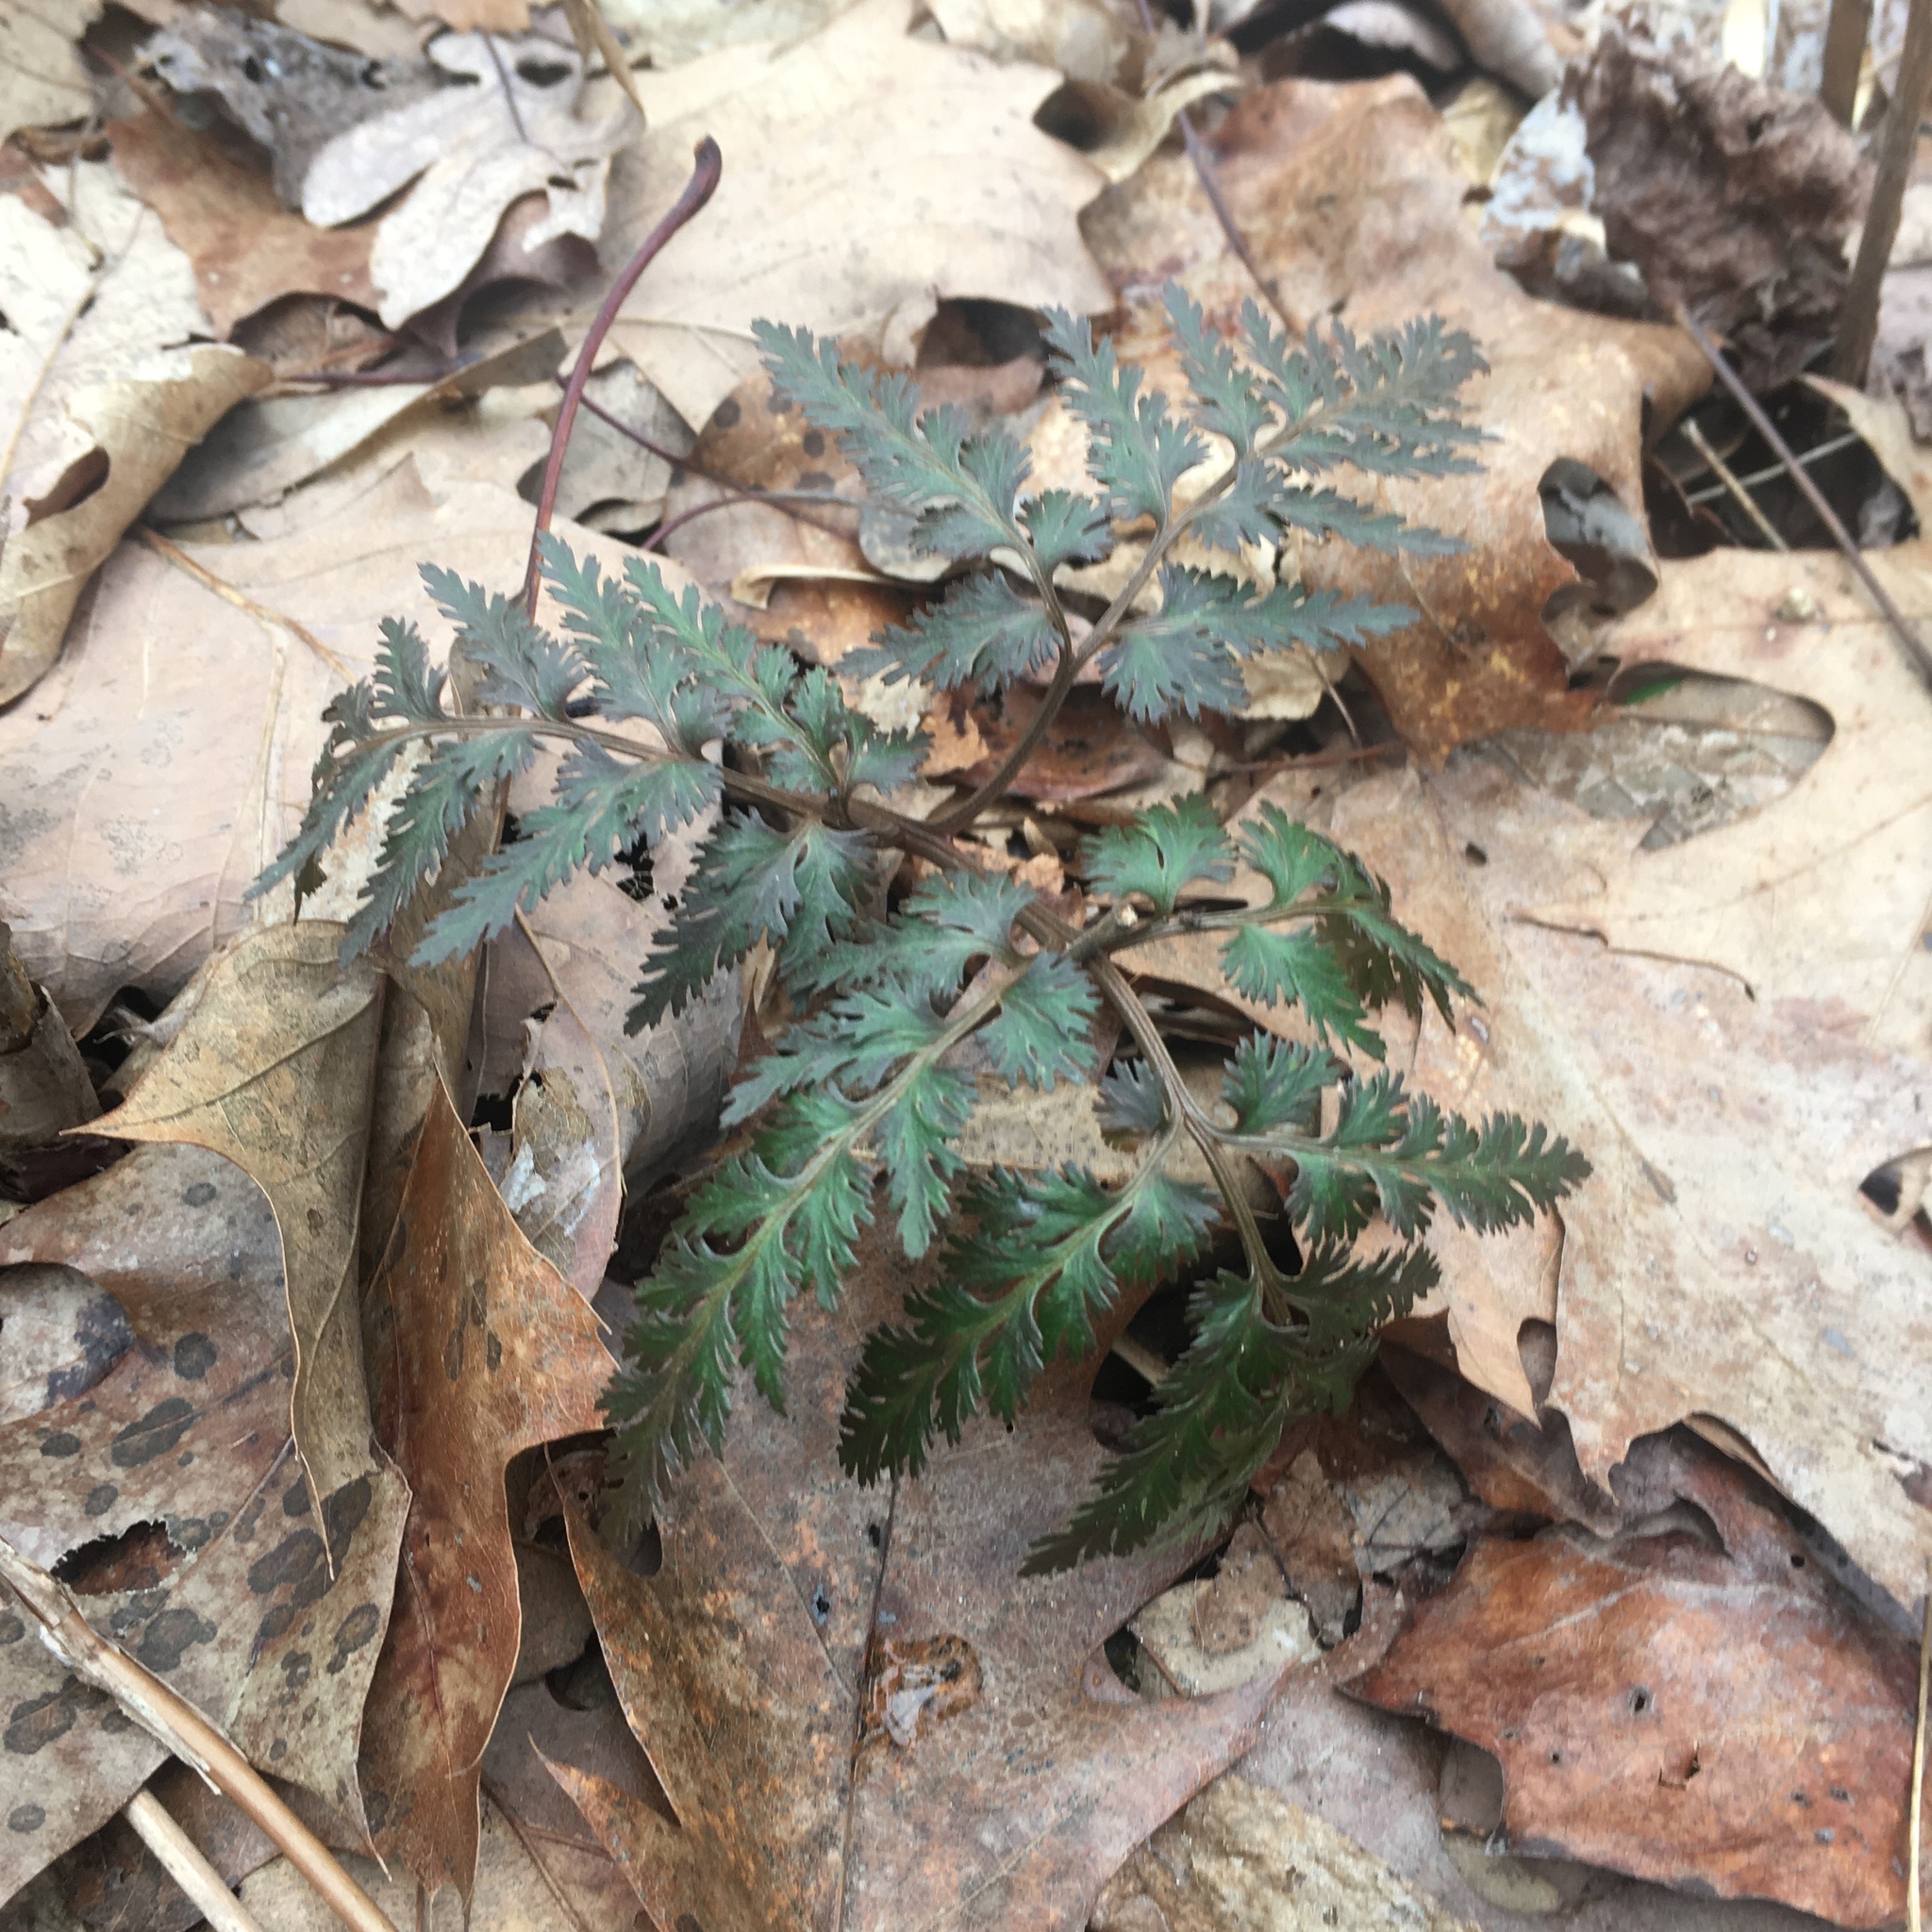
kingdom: Plantae
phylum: Tracheophyta
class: Polypodiopsida
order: Ophioglossales
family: Ophioglossaceae
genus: Sceptridium
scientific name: Sceptridium dissectum
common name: Cut-leaved grapefern
